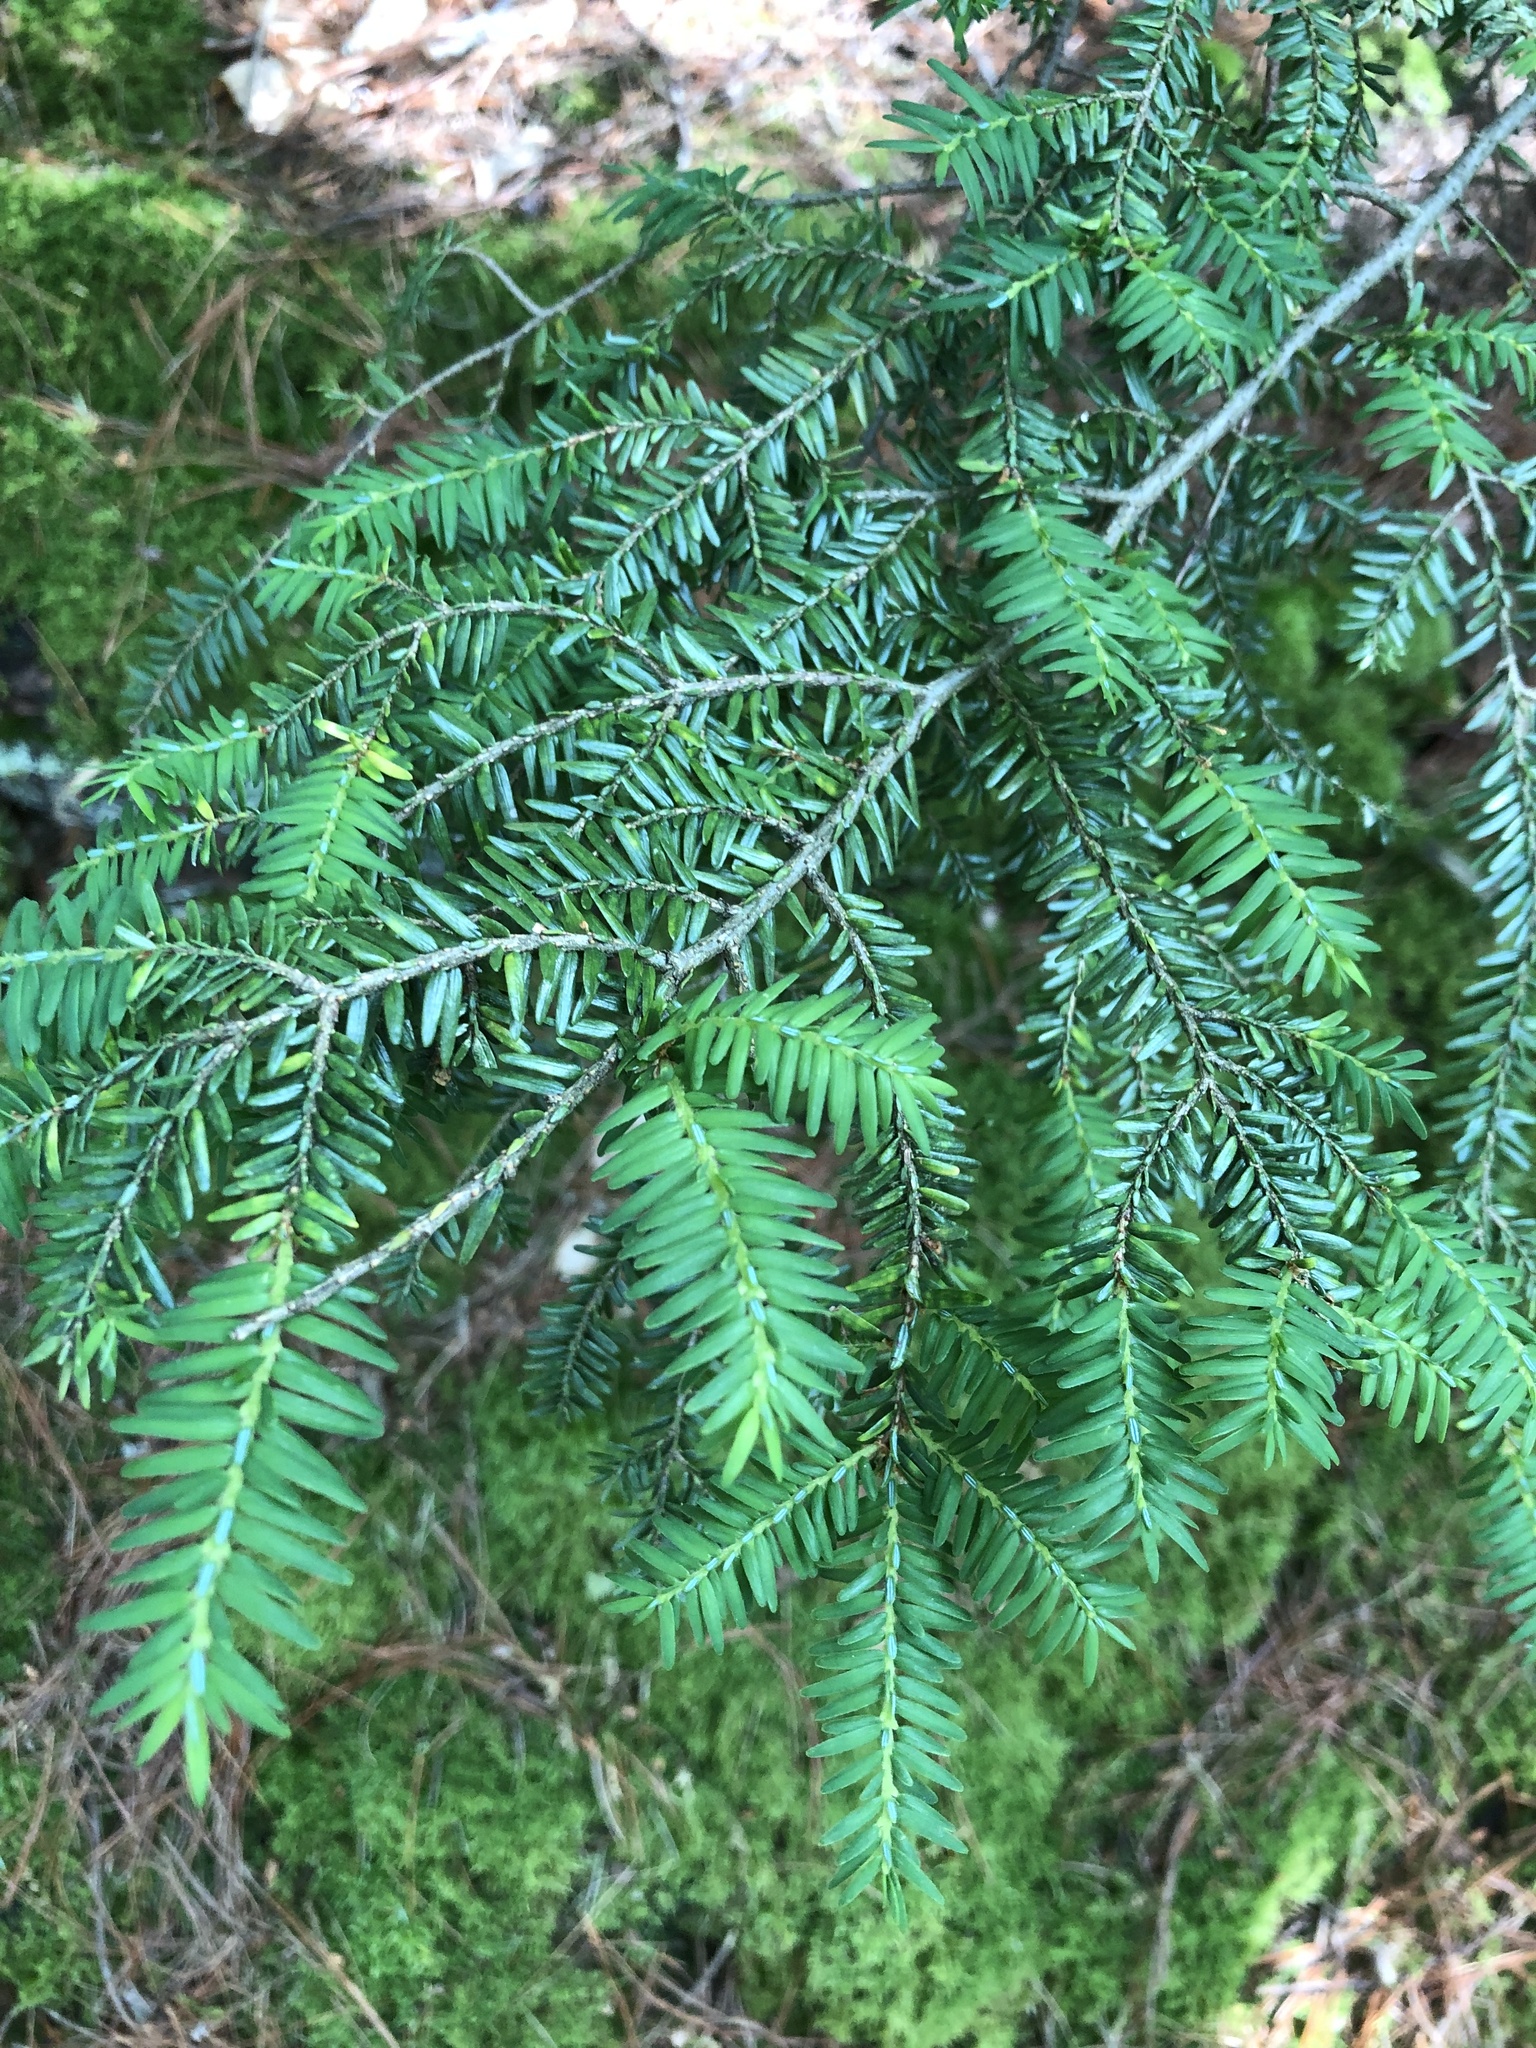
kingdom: Plantae
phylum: Tracheophyta
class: Pinopsida
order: Pinales
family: Pinaceae
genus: Tsuga
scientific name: Tsuga canadensis
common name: Eastern hemlock
